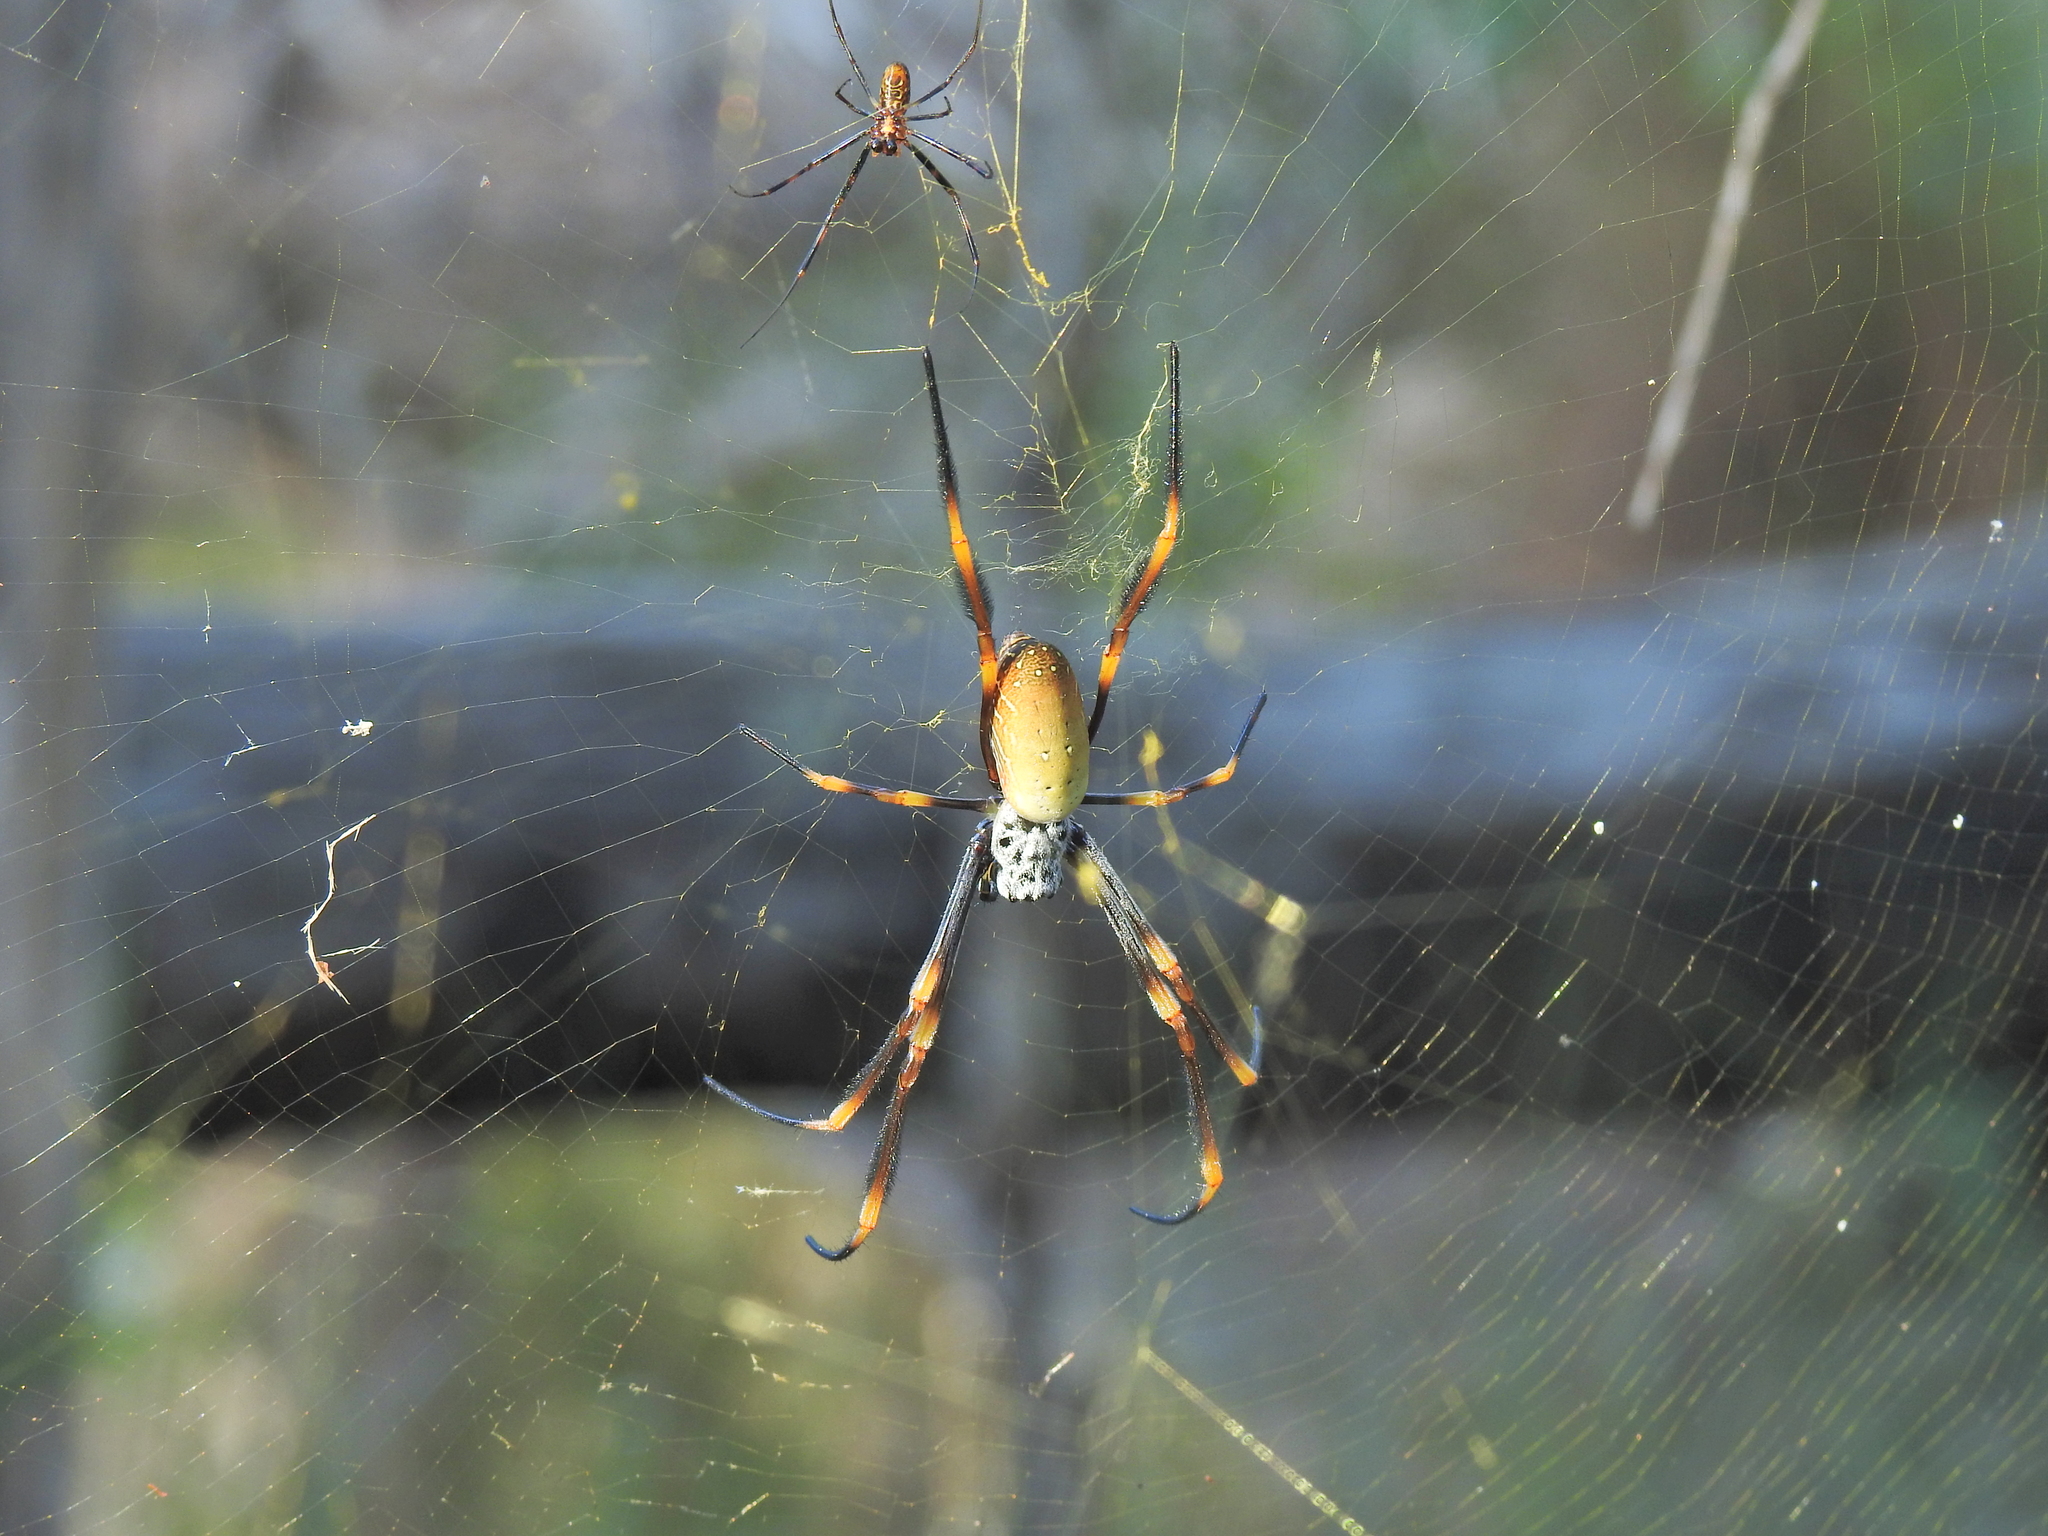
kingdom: Animalia
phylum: Arthropoda
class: Arachnida
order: Araneae
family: Araneidae
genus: Trichonephila
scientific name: Trichonephila plumipes
